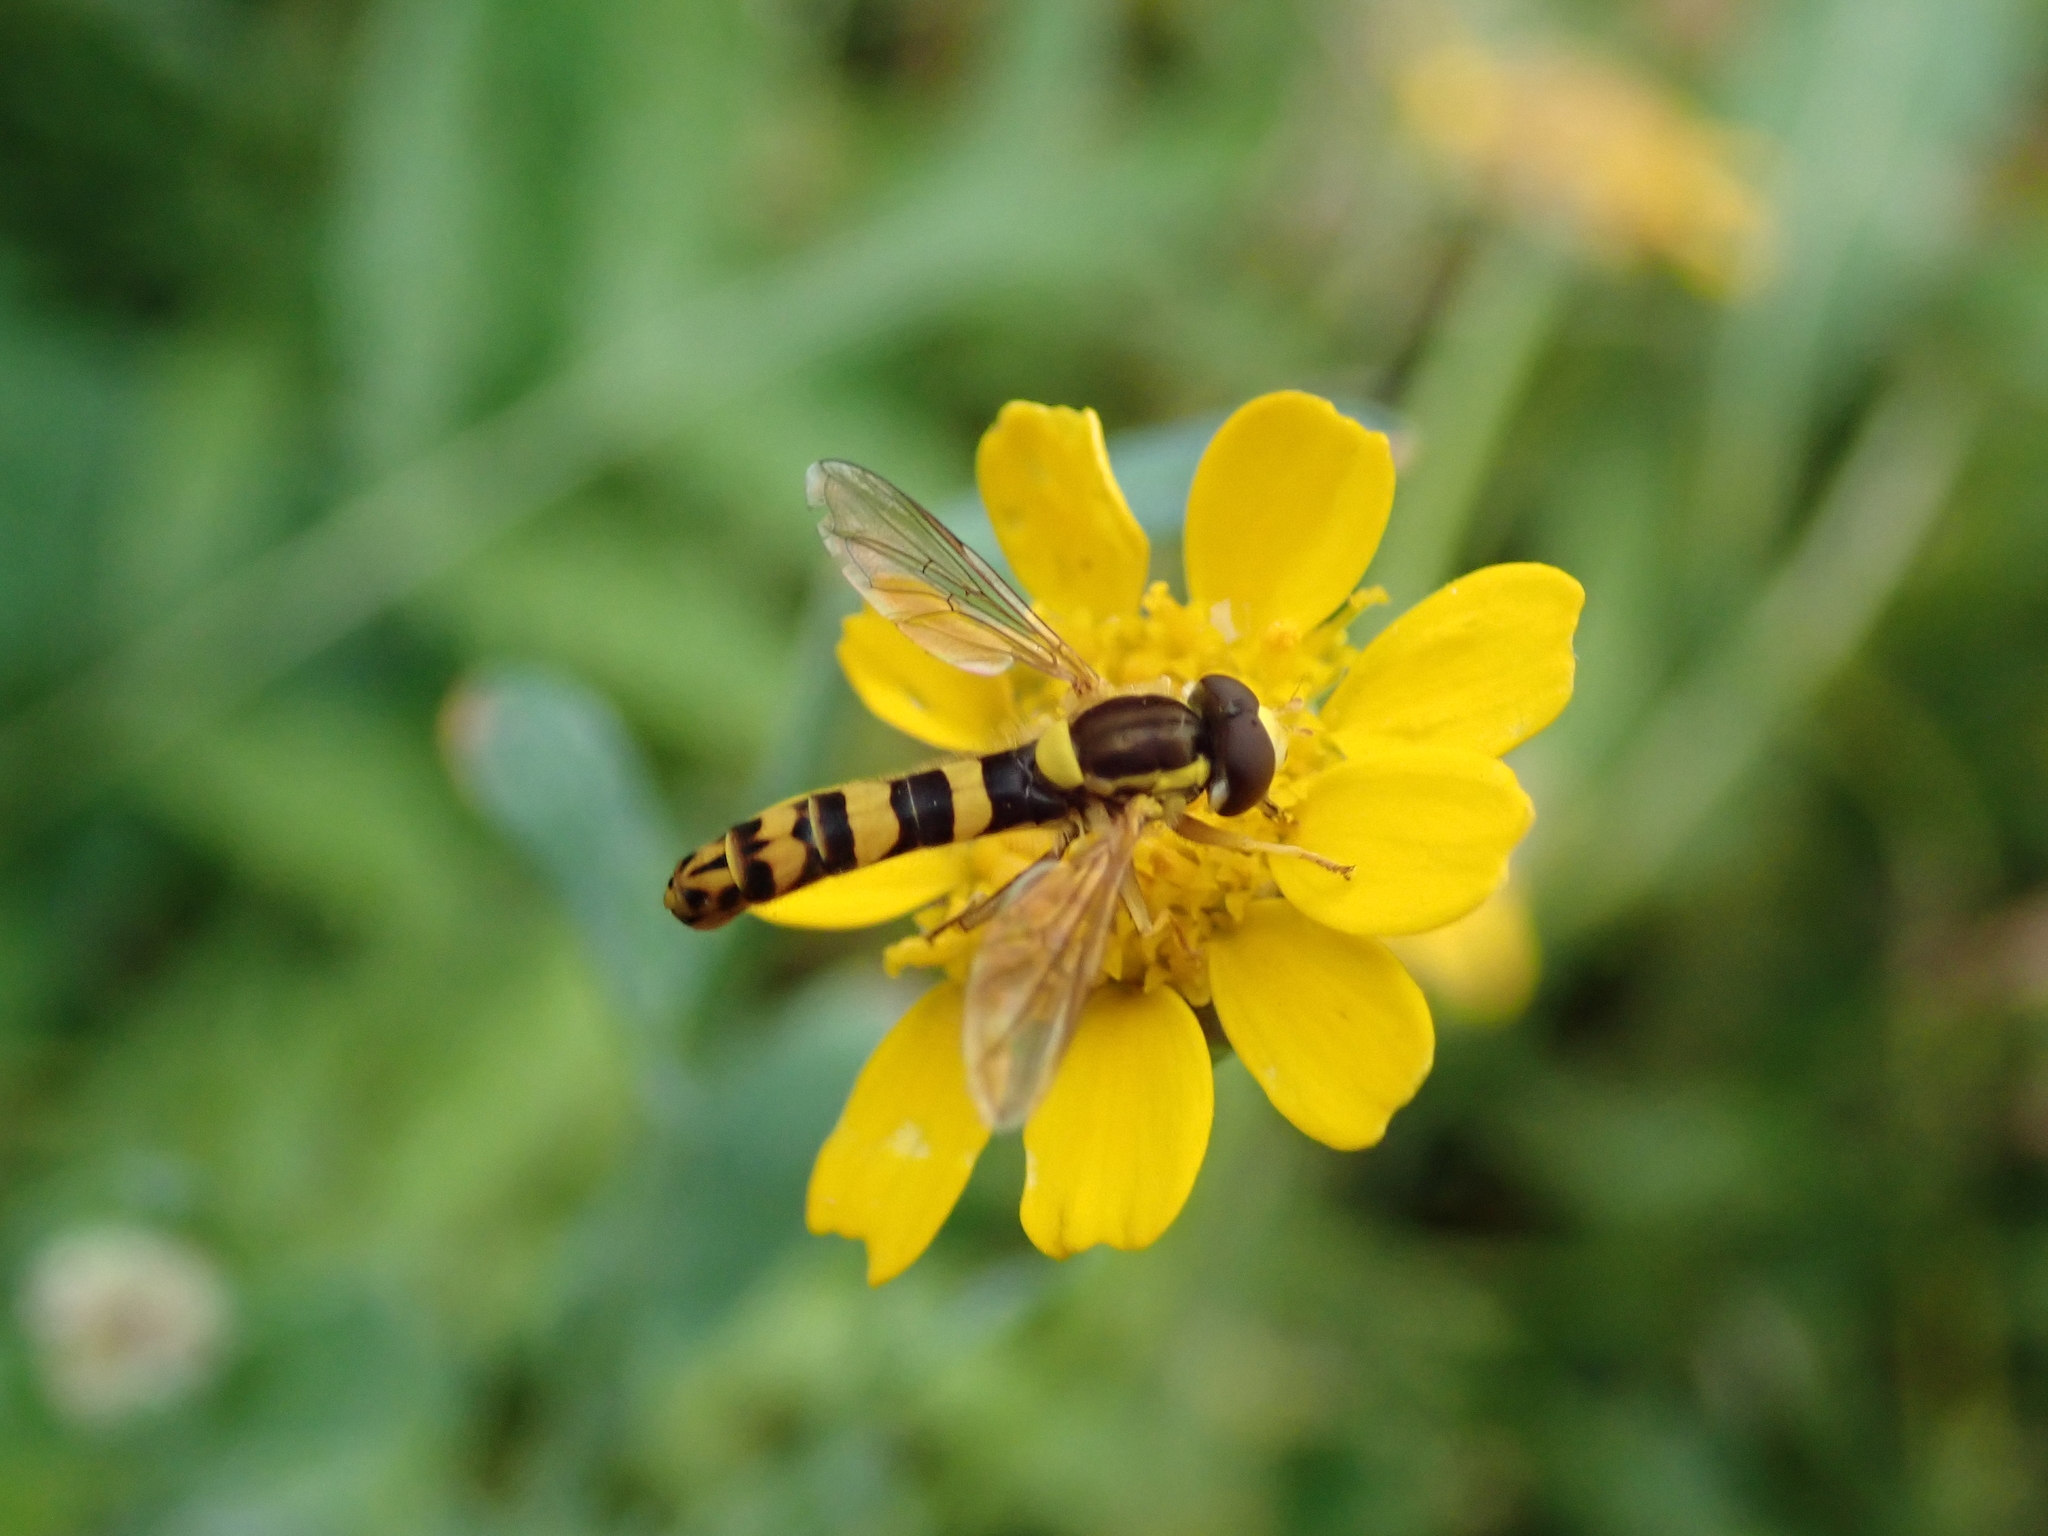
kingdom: Animalia
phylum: Arthropoda
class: Insecta
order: Diptera
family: Syrphidae
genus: Sphaerophoria
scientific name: Sphaerophoria scripta
